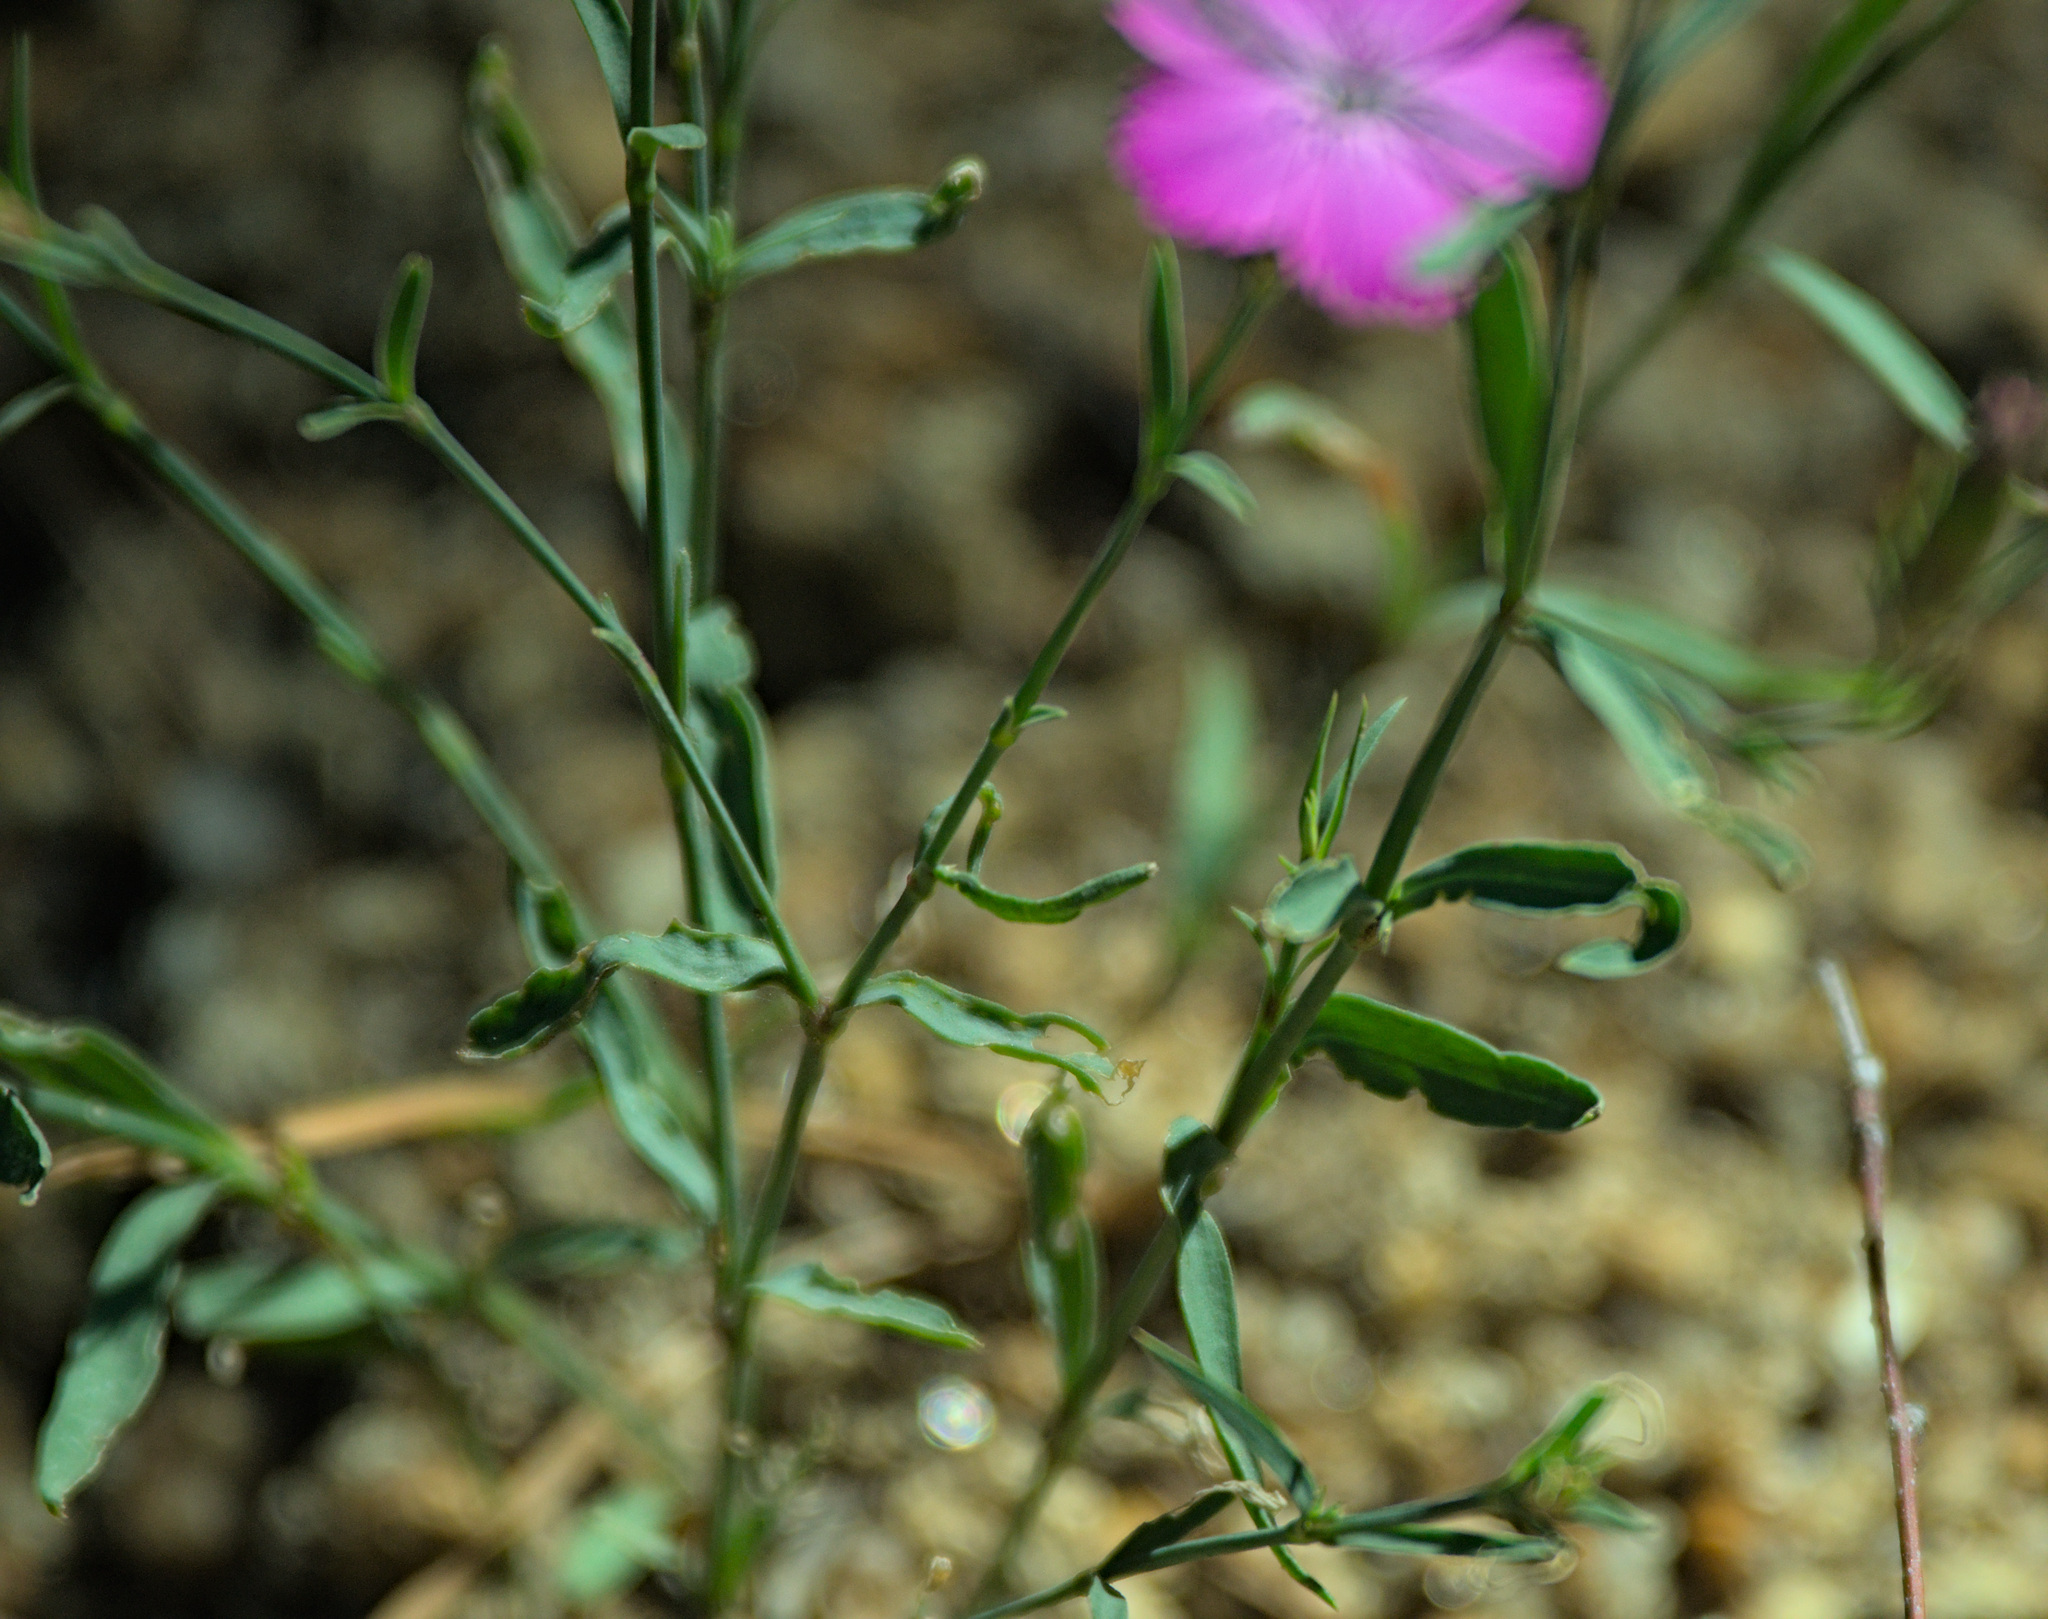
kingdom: Plantae
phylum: Tracheophyta
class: Magnoliopsida
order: Caryophyllales
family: Caryophyllaceae
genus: Dianthus
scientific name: Dianthus chinensis
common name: Rainbow pink
